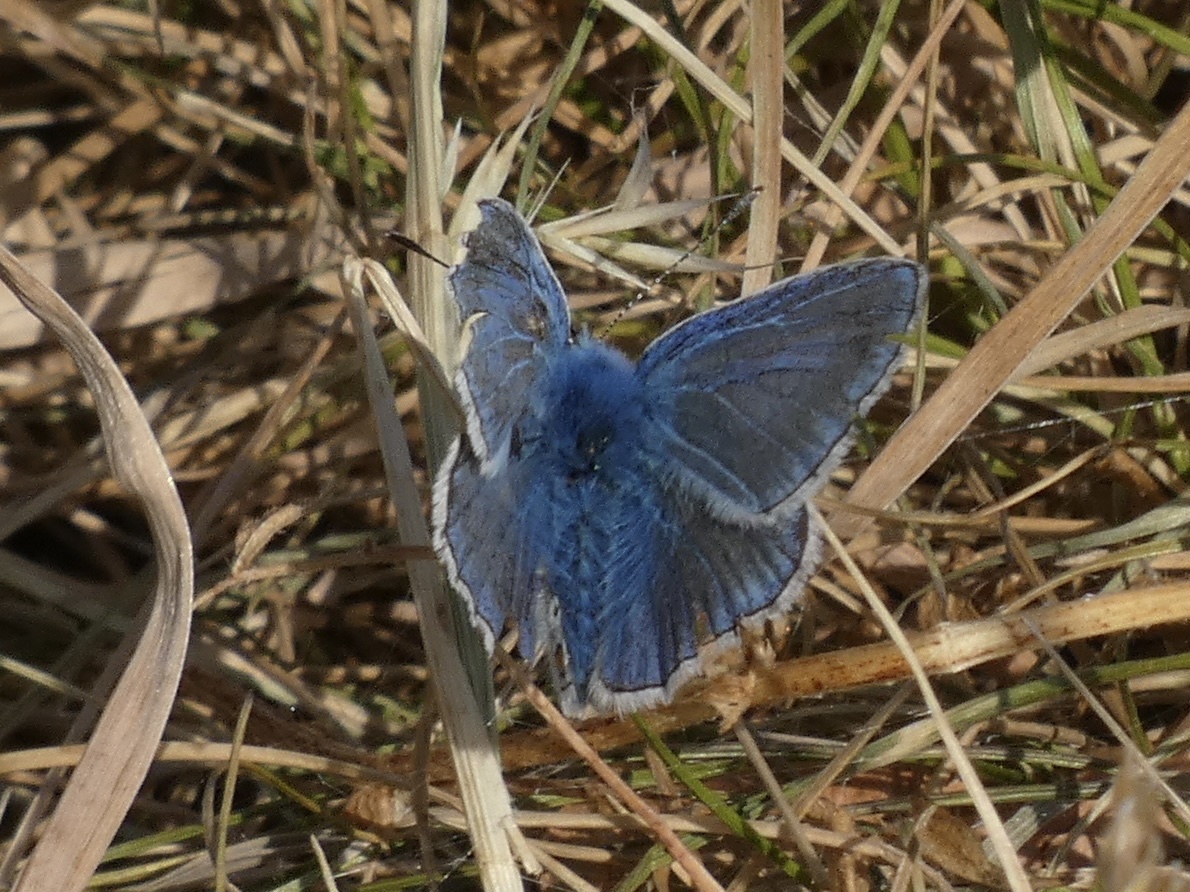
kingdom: Animalia
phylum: Arthropoda
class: Insecta
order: Lepidoptera
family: Lycaenidae
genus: Polyommatus
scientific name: Polyommatus icarus
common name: Common blue
